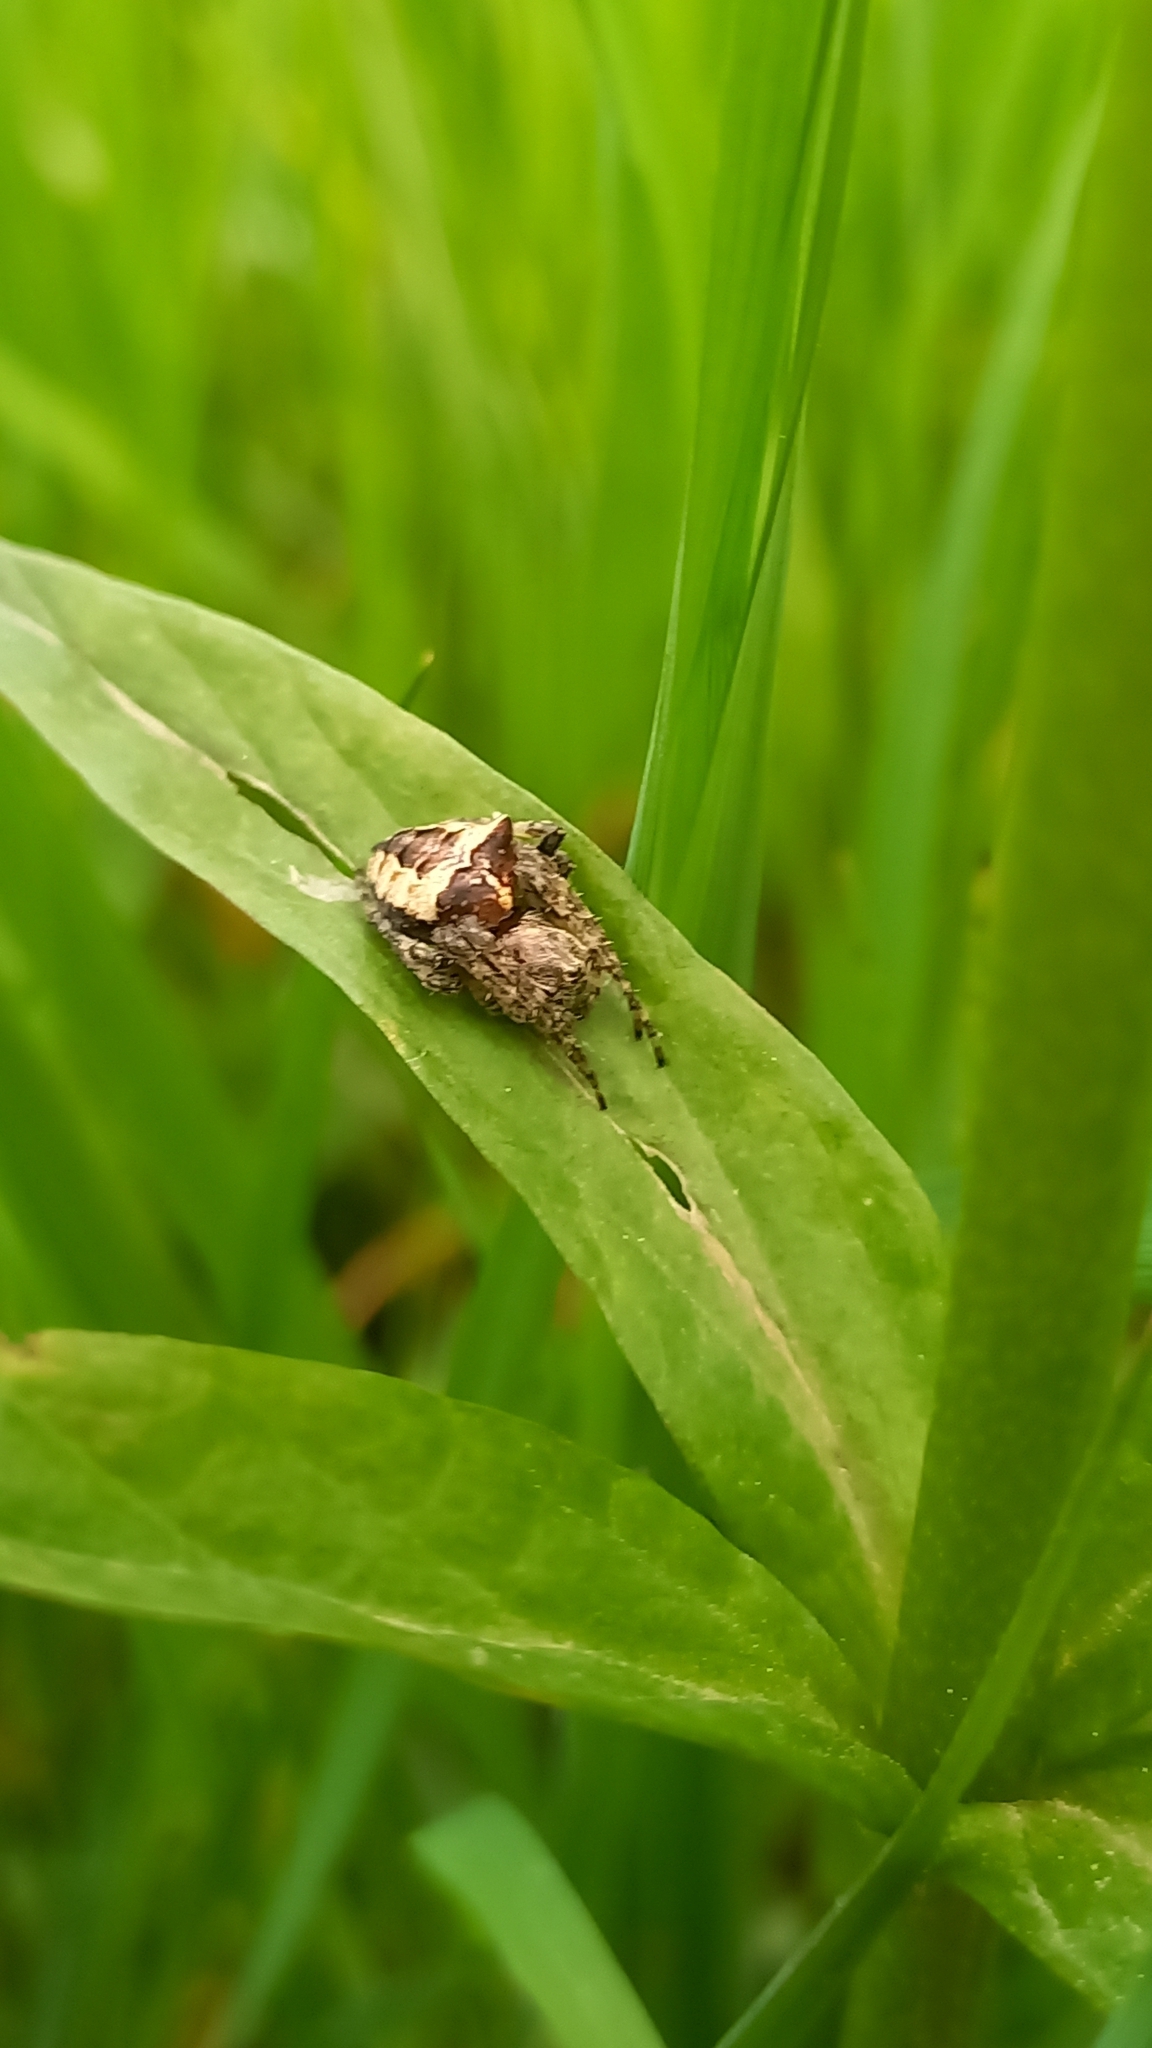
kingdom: Animalia
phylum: Arthropoda
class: Arachnida
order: Araneae
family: Araneidae
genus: Gibbaranea
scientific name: Gibbaranea bituberculata
